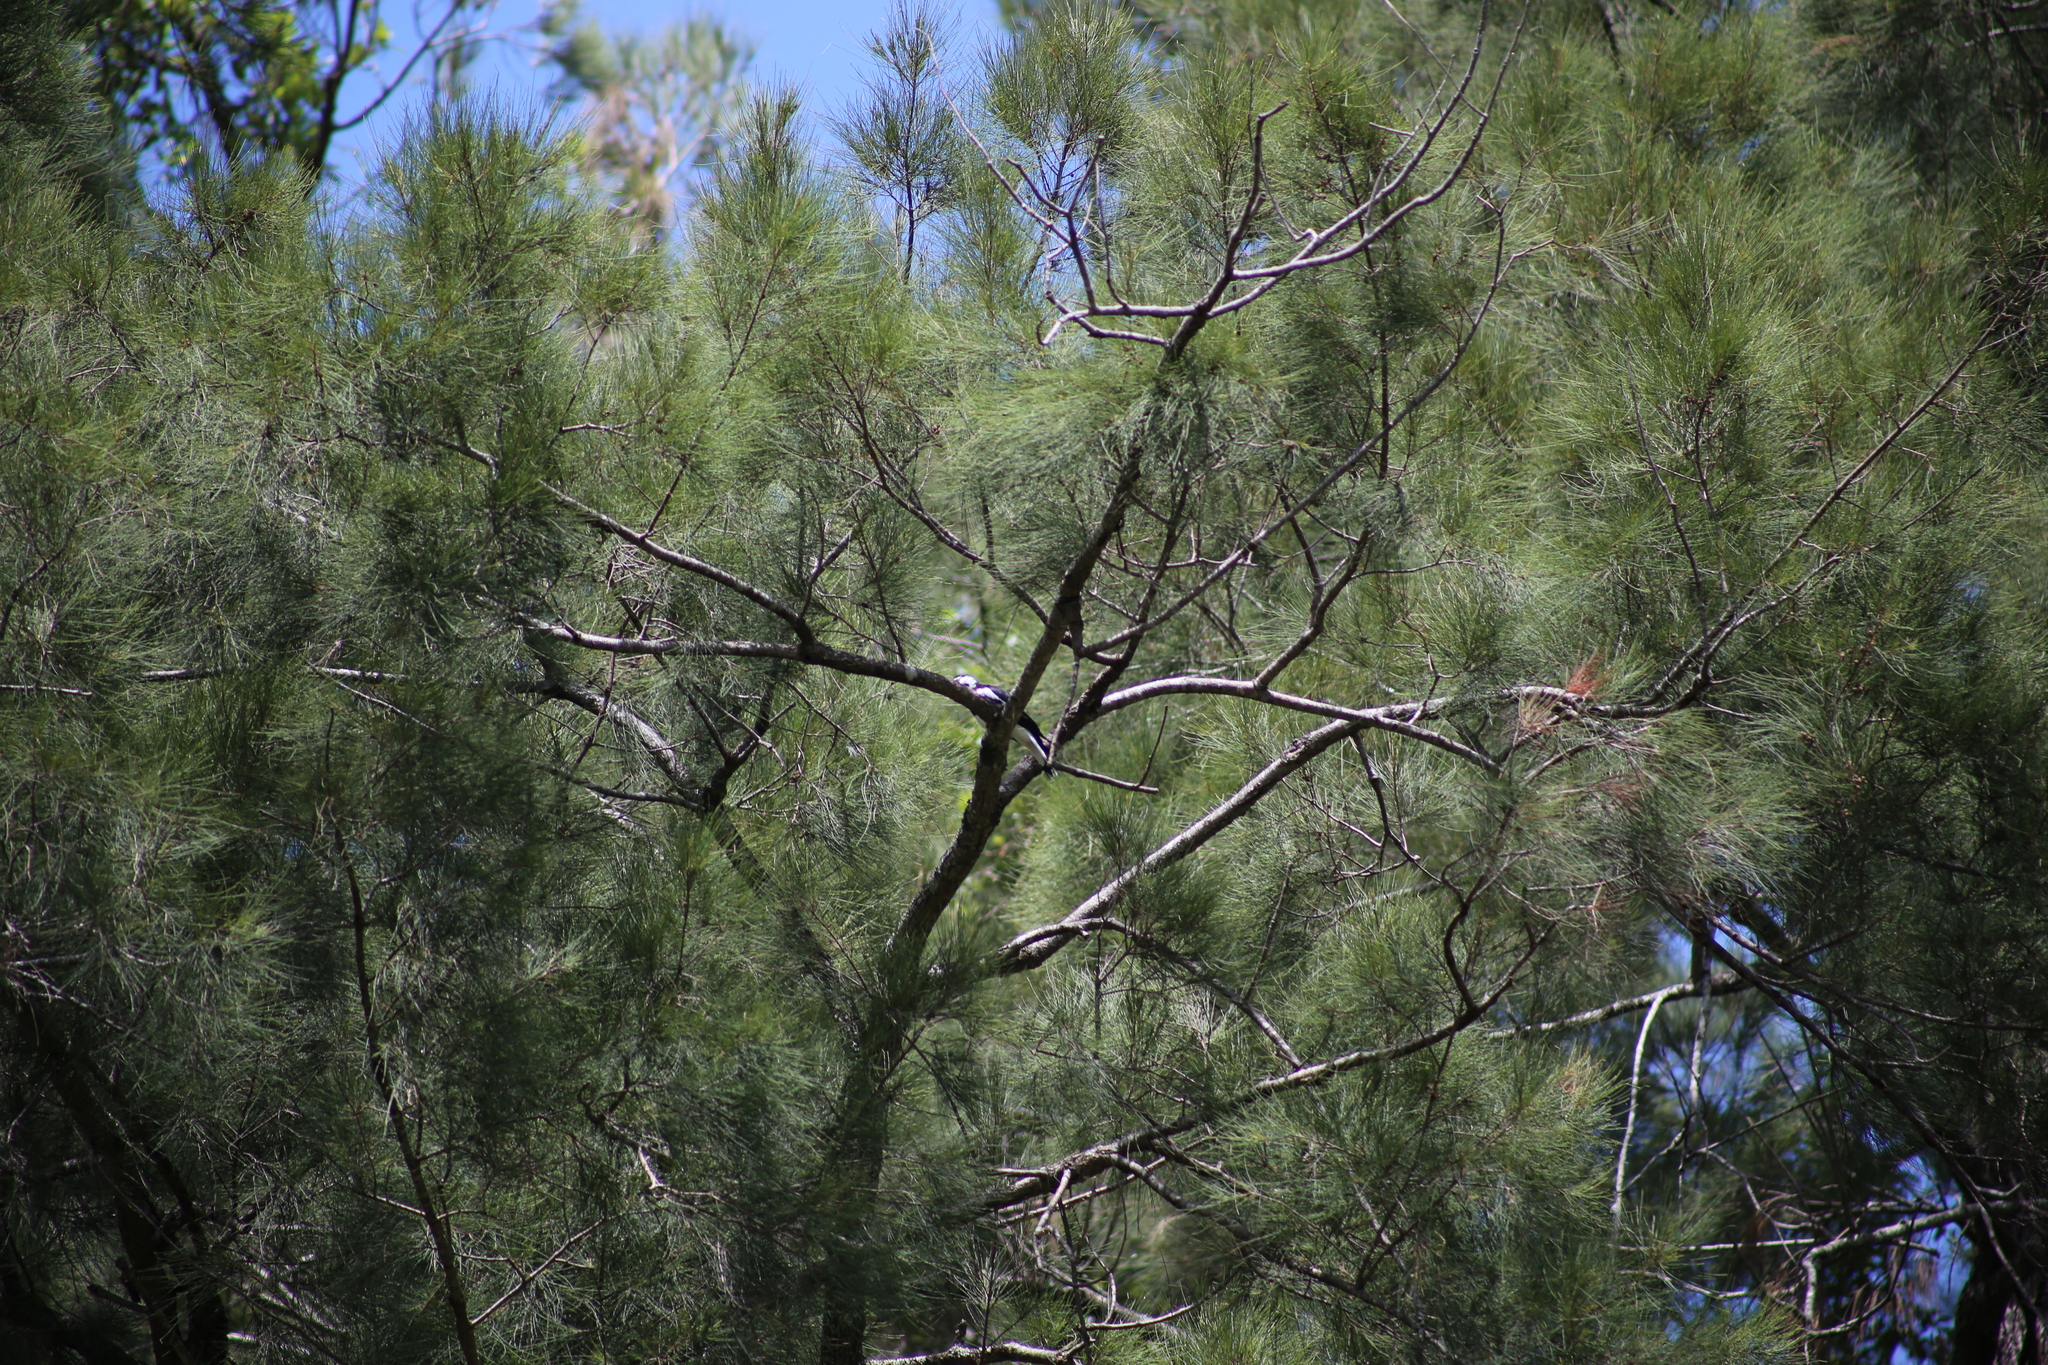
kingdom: Animalia
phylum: Chordata
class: Aves
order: Passeriformes
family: Monarchidae
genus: Grallina
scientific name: Grallina cyanoleuca
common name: Magpie-lark
